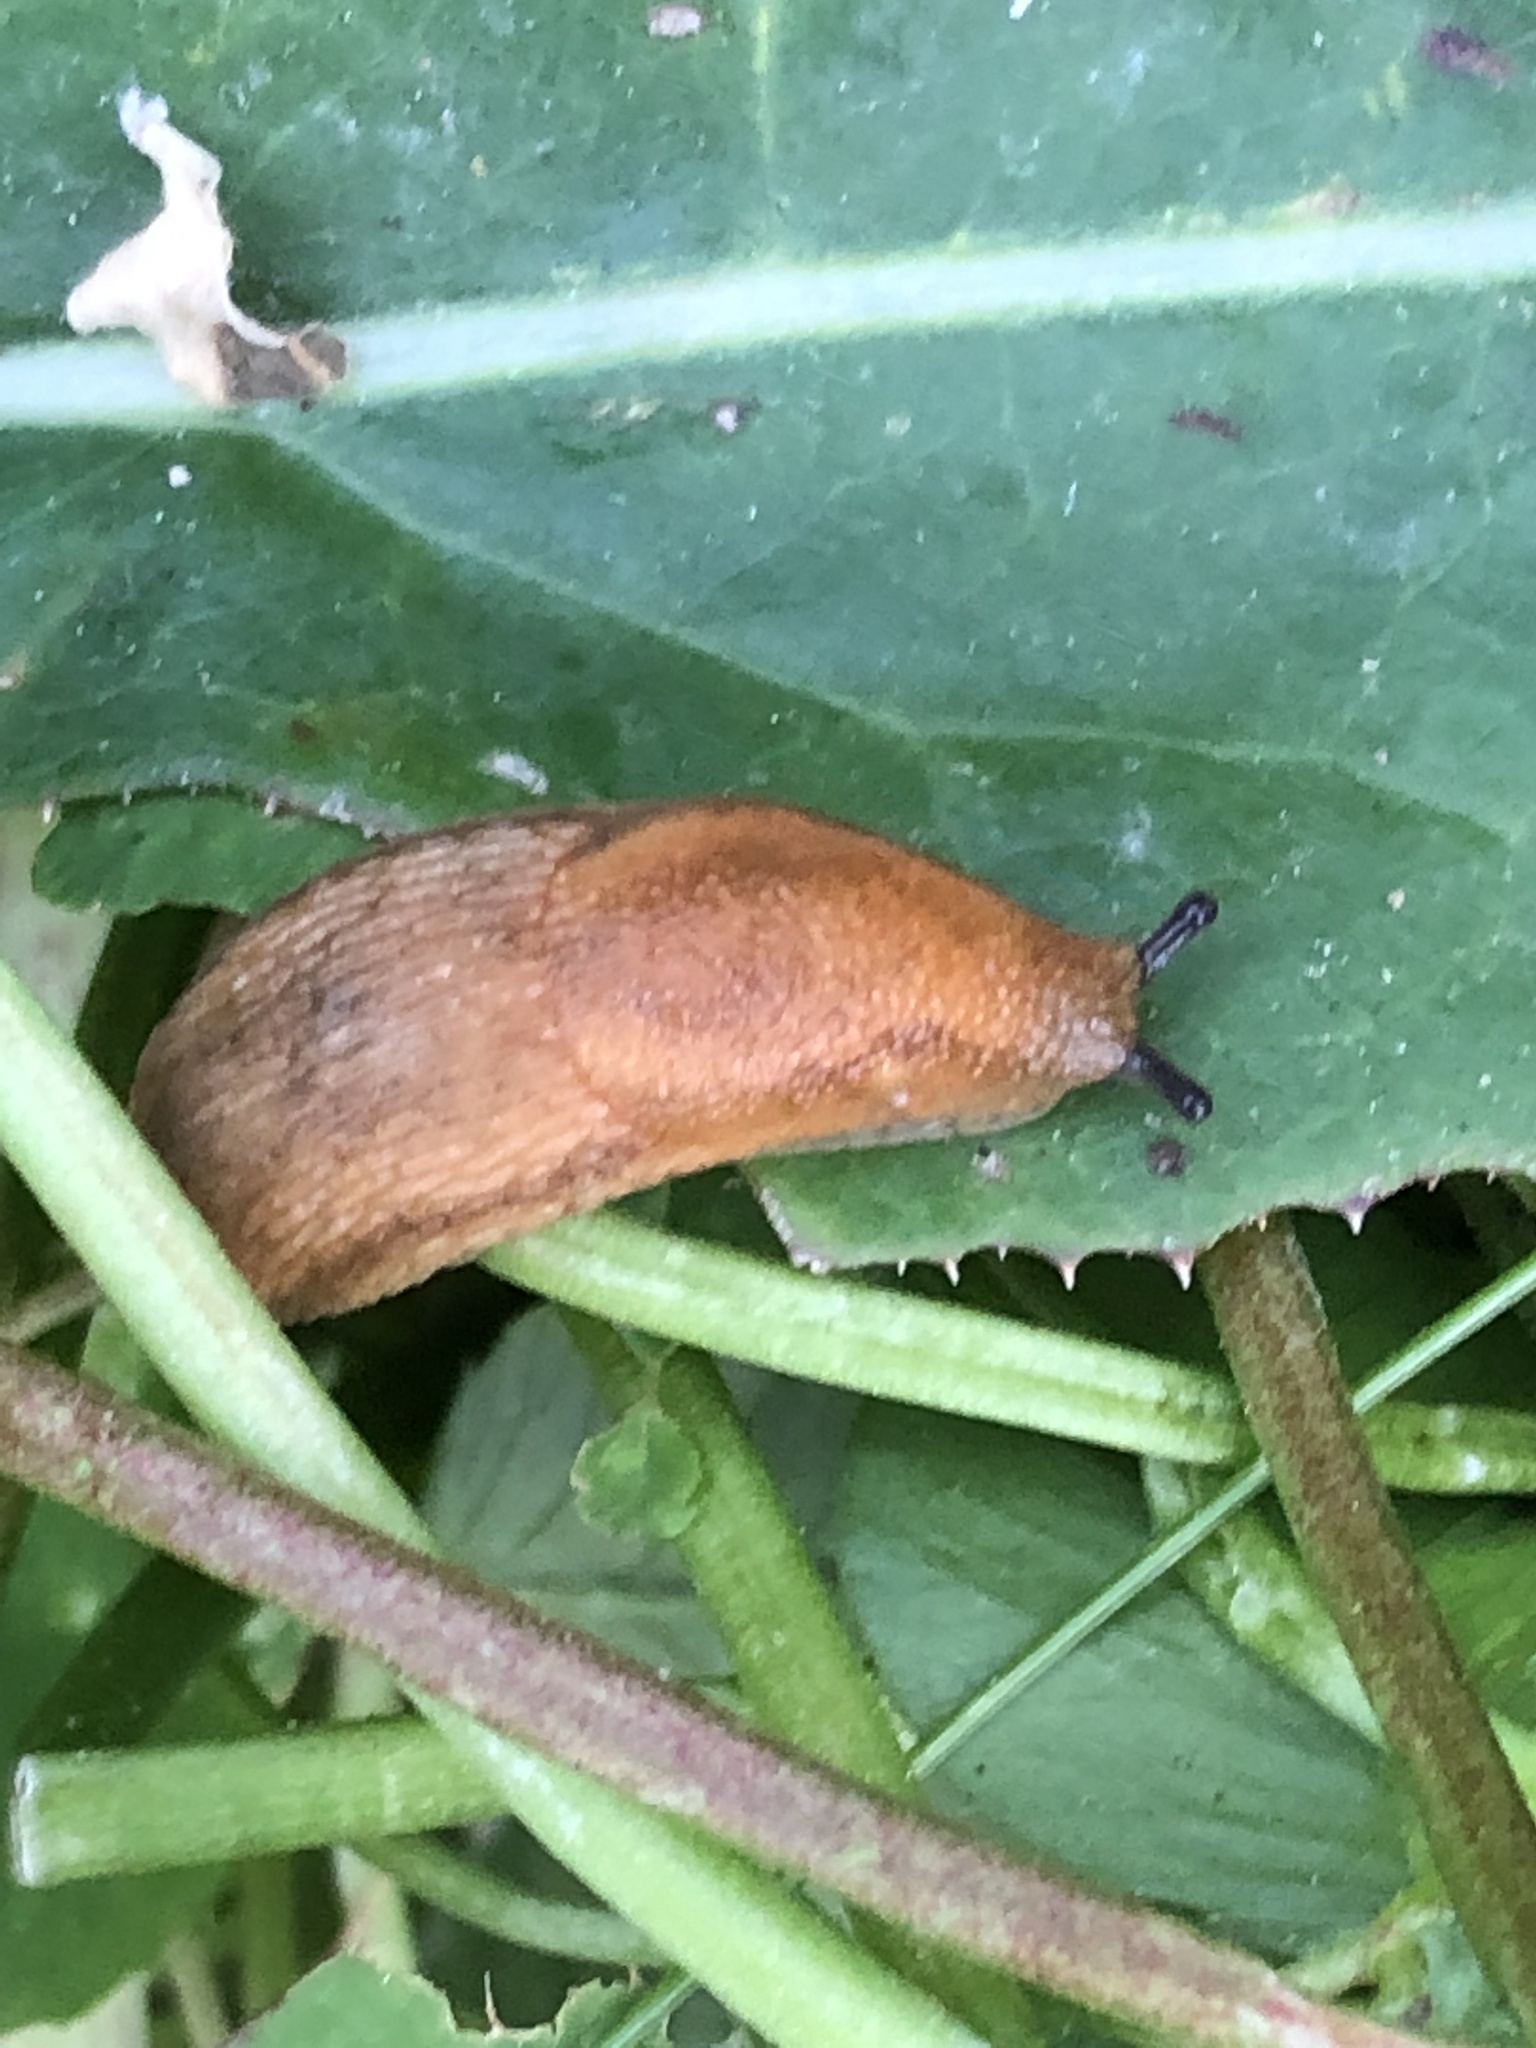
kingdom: Animalia
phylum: Mollusca
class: Gastropoda
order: Stylommatophora
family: Arionidae
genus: Arion
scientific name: Arion subfuscus
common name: Dusky arion
